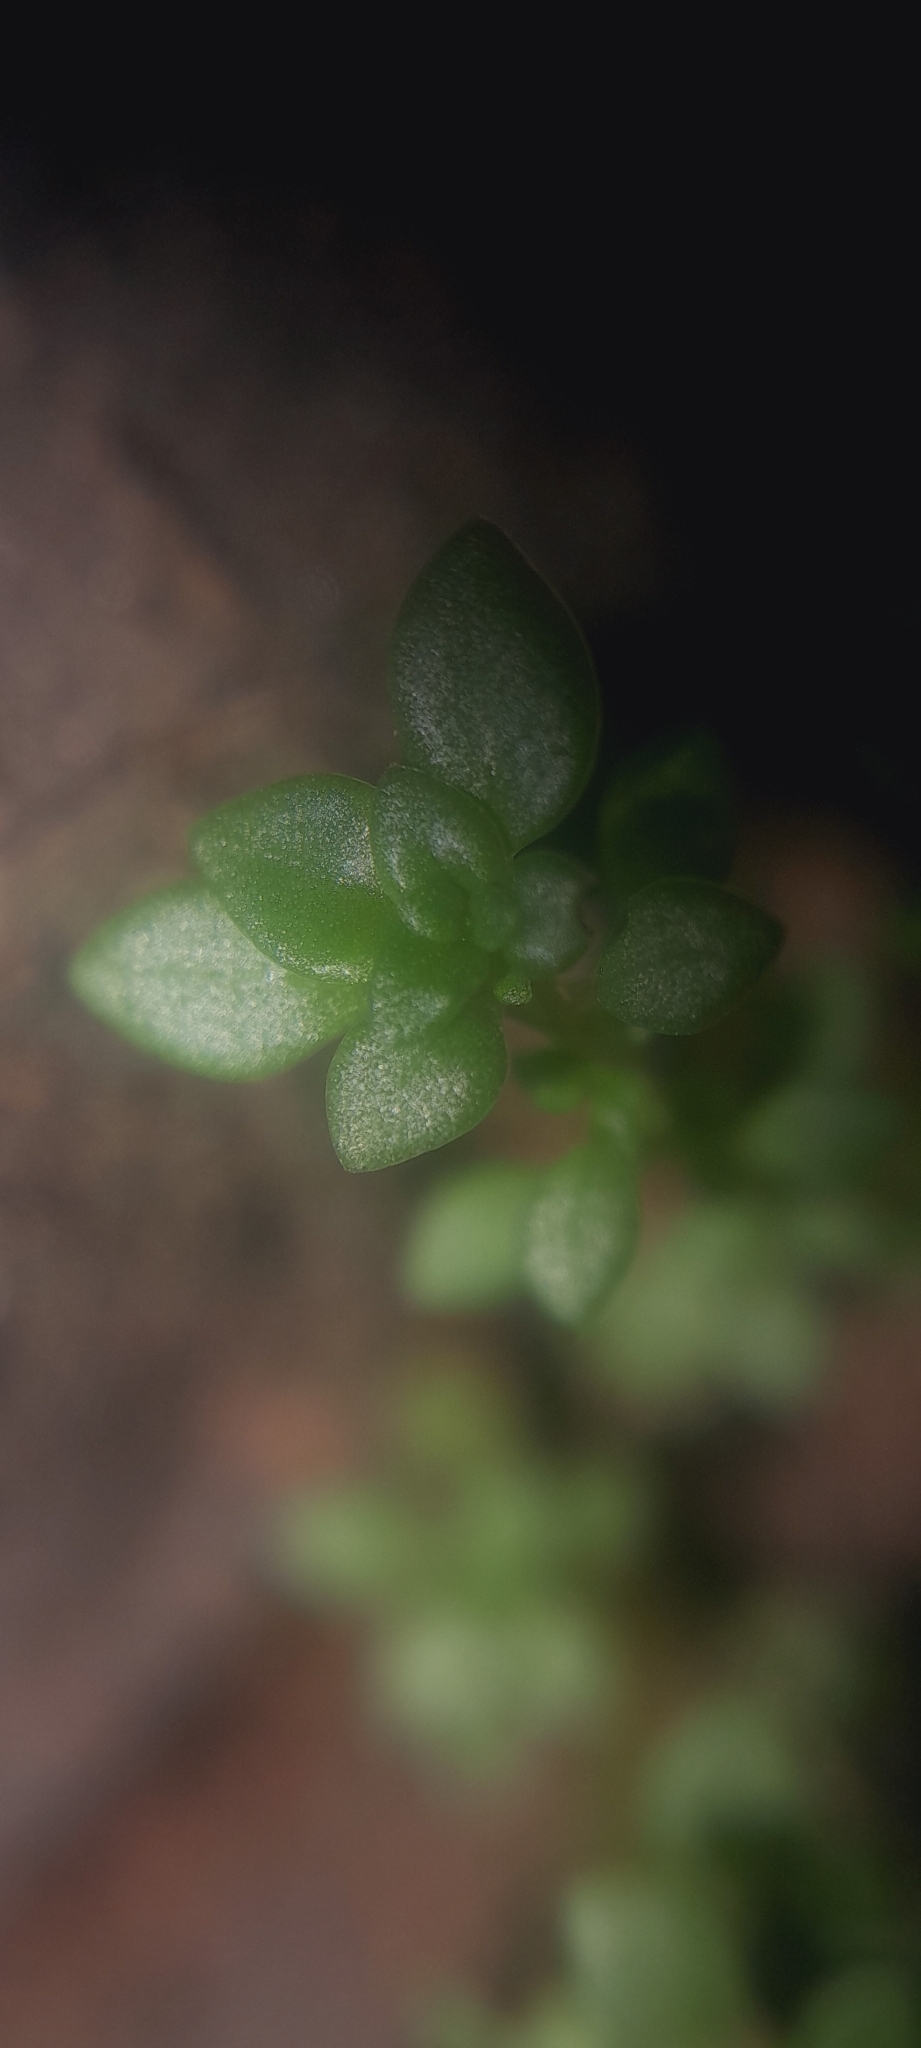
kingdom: Plantae
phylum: Tracheophyta
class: Magnoliopsida
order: Rosales
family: Urticaceae
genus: Pilea
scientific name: Pilea microphylla
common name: Artillery-plant
